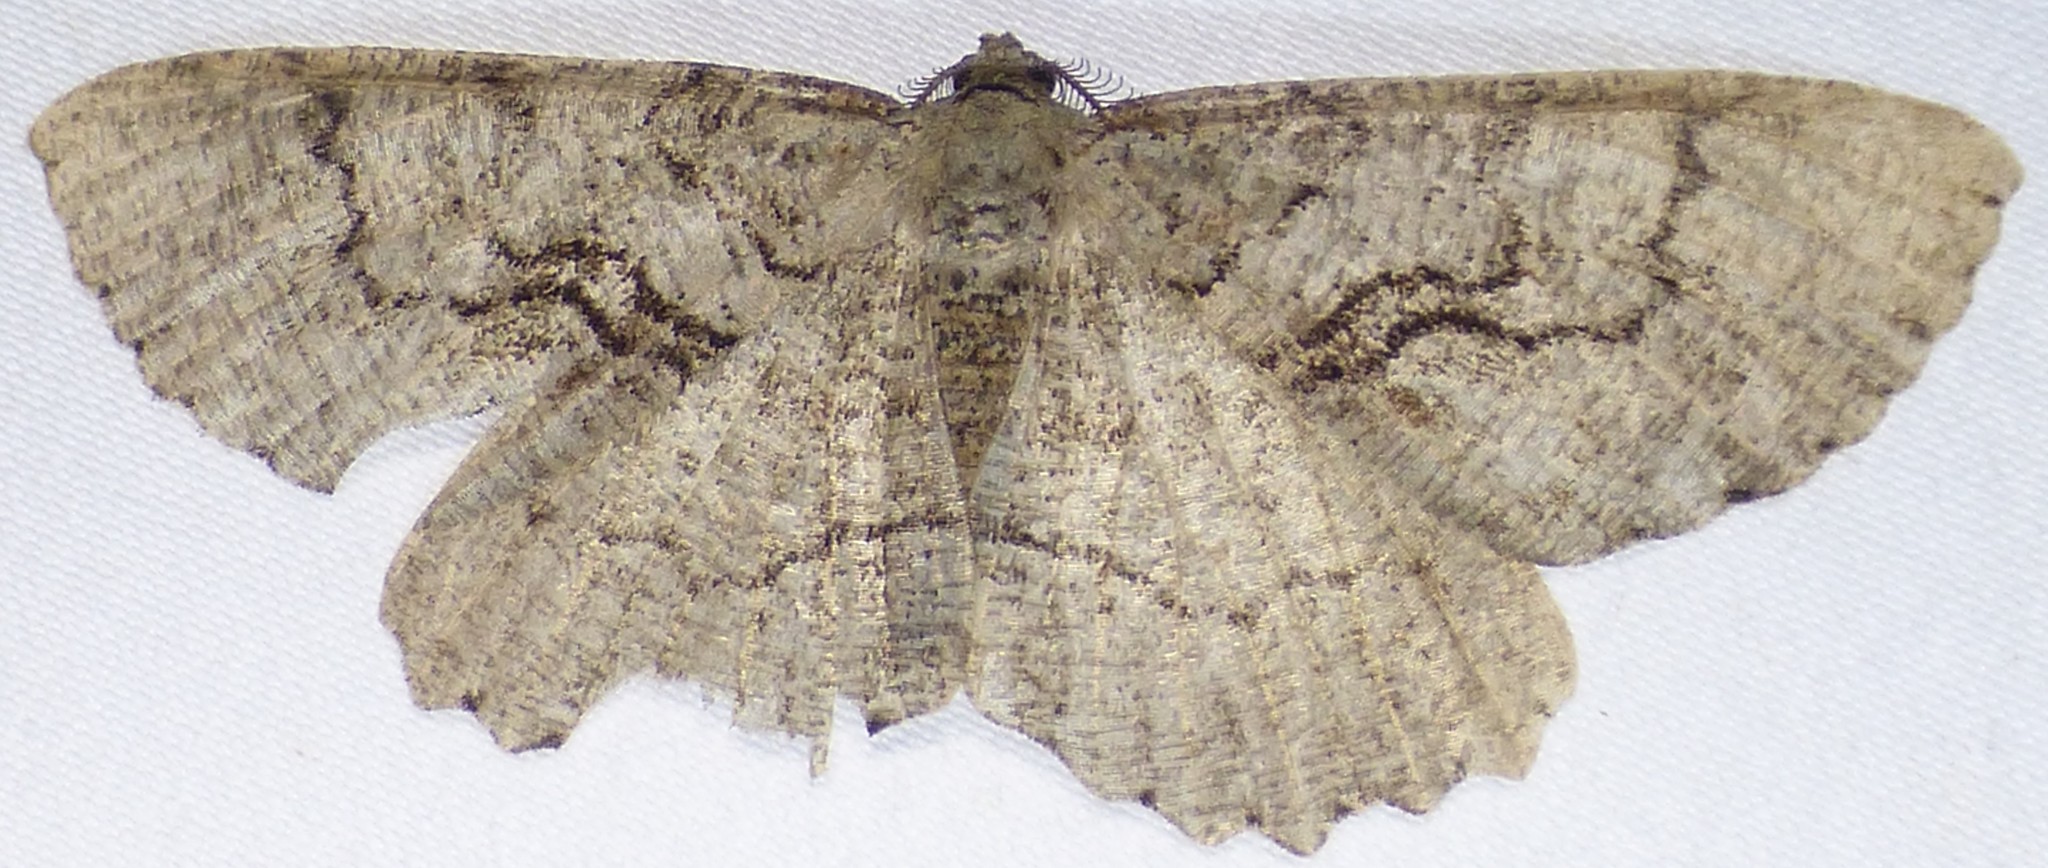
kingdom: Animalia
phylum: Arthropoda
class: Insecta
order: Lepidoptera
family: Geometridae
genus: Cymatophora
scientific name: Cymatophora approximaria
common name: Giant gray moth
